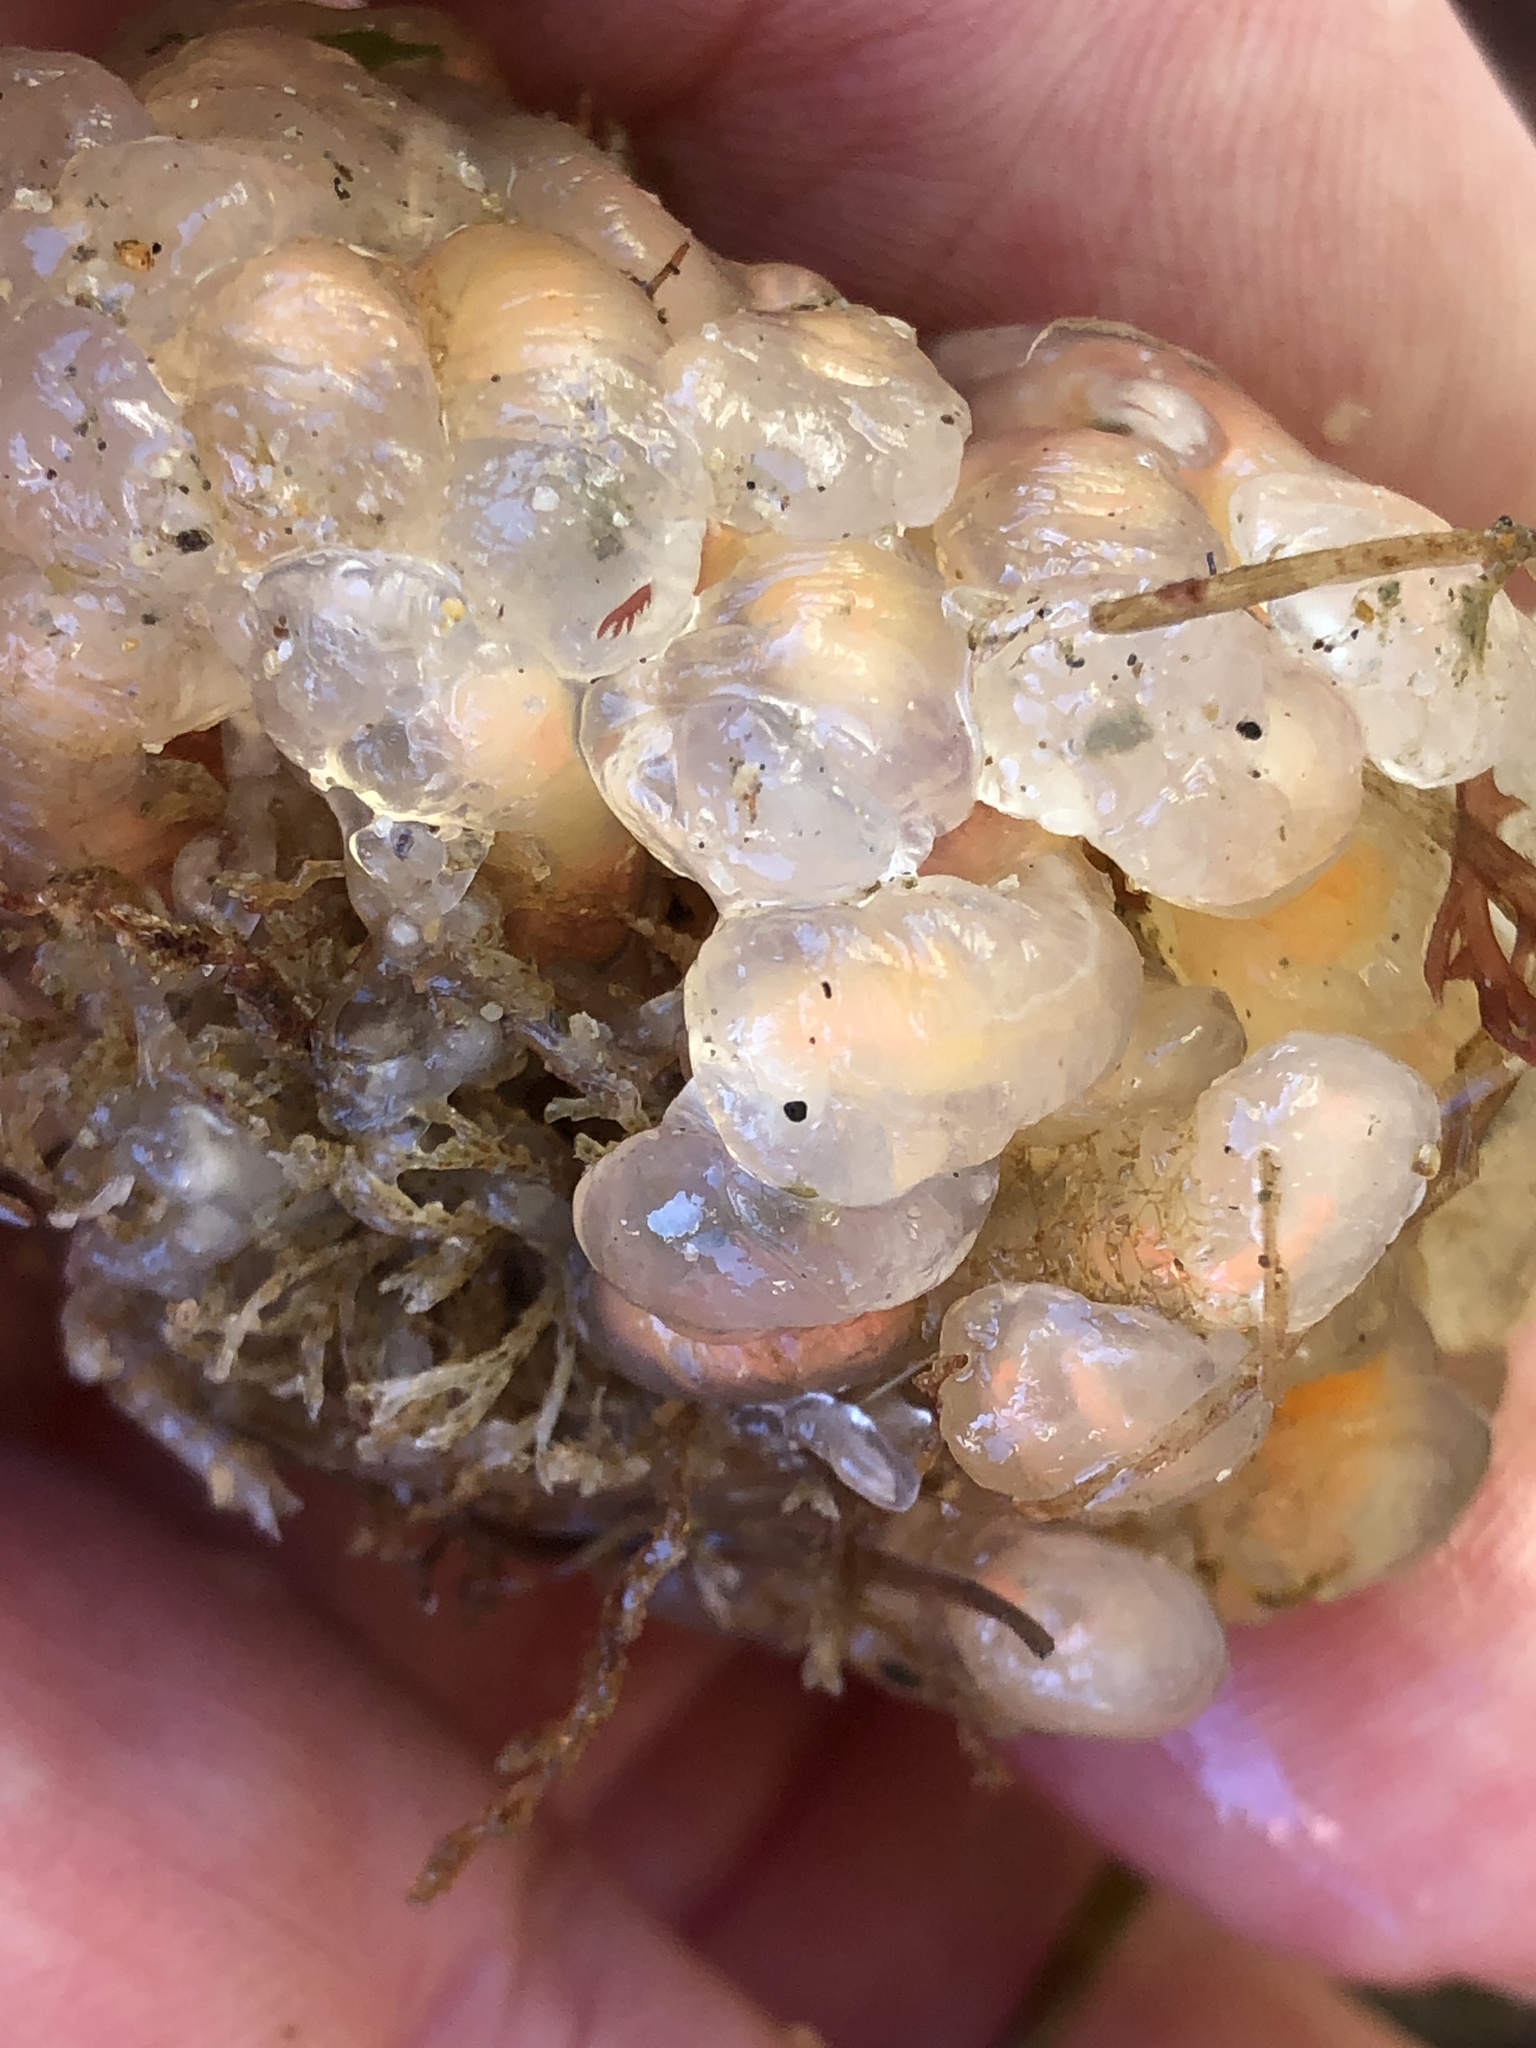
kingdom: Animalia
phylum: Chordata
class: Ascidiacea
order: Aplousobranchia
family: Clavelinidae
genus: Clavelina
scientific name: Clavelina huntsmani
